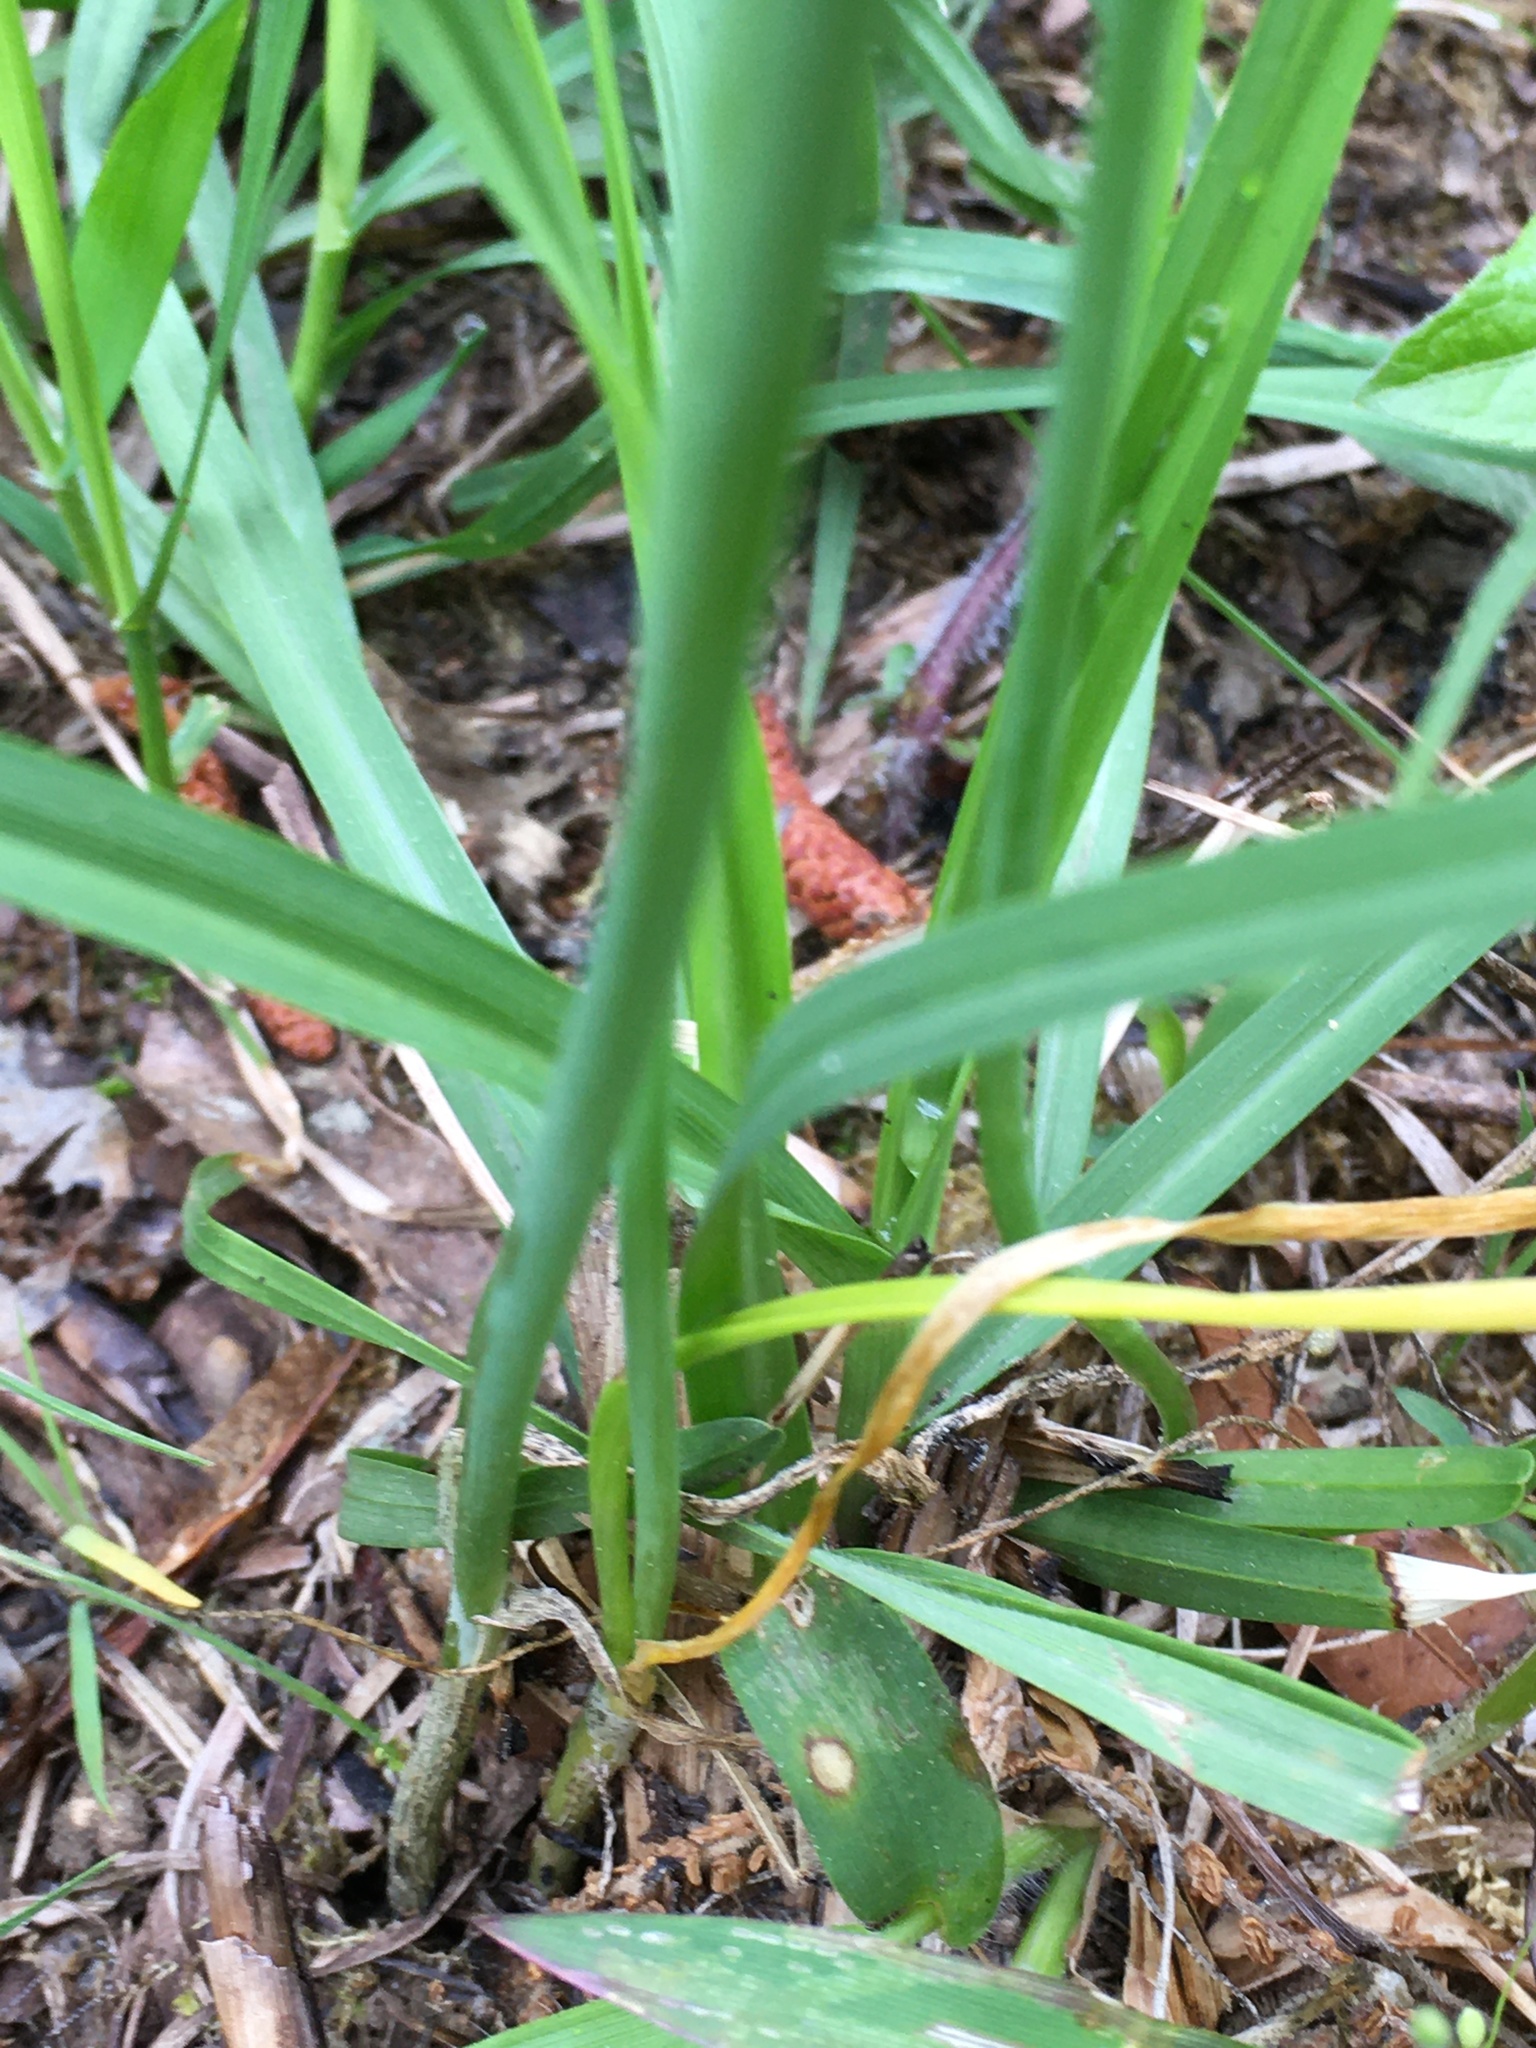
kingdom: Plantae
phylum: Tracheophyta
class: Liliopsida
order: Asparagales
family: Amaryllidaceae
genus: Allium
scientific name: Allium canadense
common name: Meadow garlic
